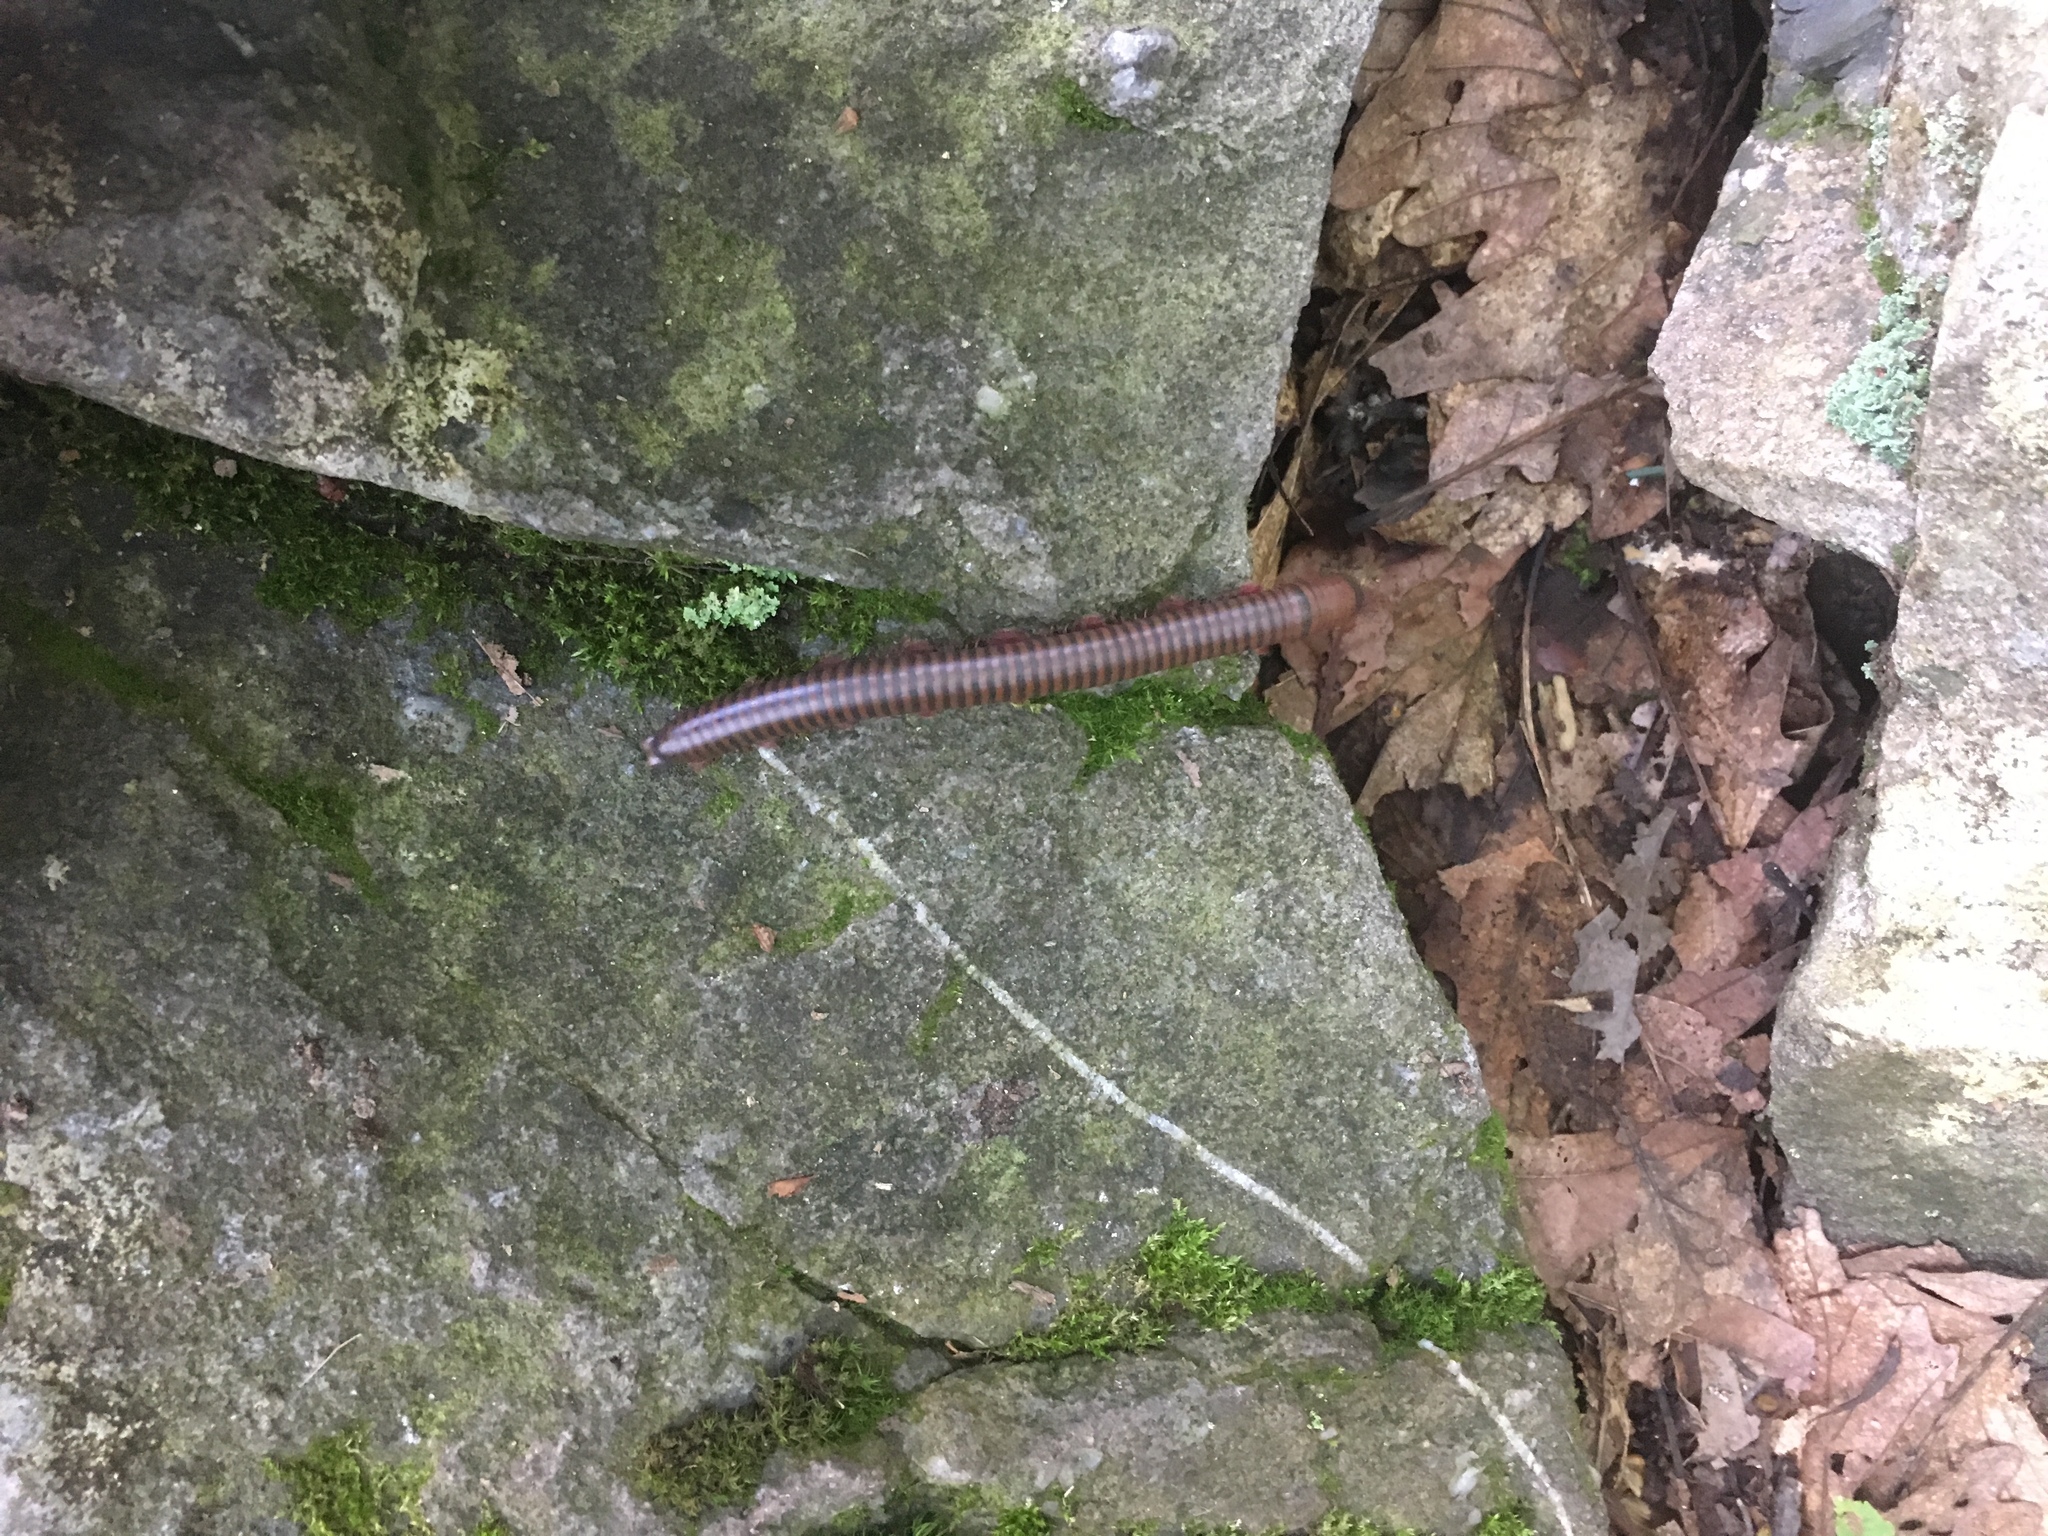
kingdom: Animalia
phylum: Arthropoda
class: Diplopoda
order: Spirobolida
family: Spirobolidae
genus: Narceus
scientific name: Narceus
